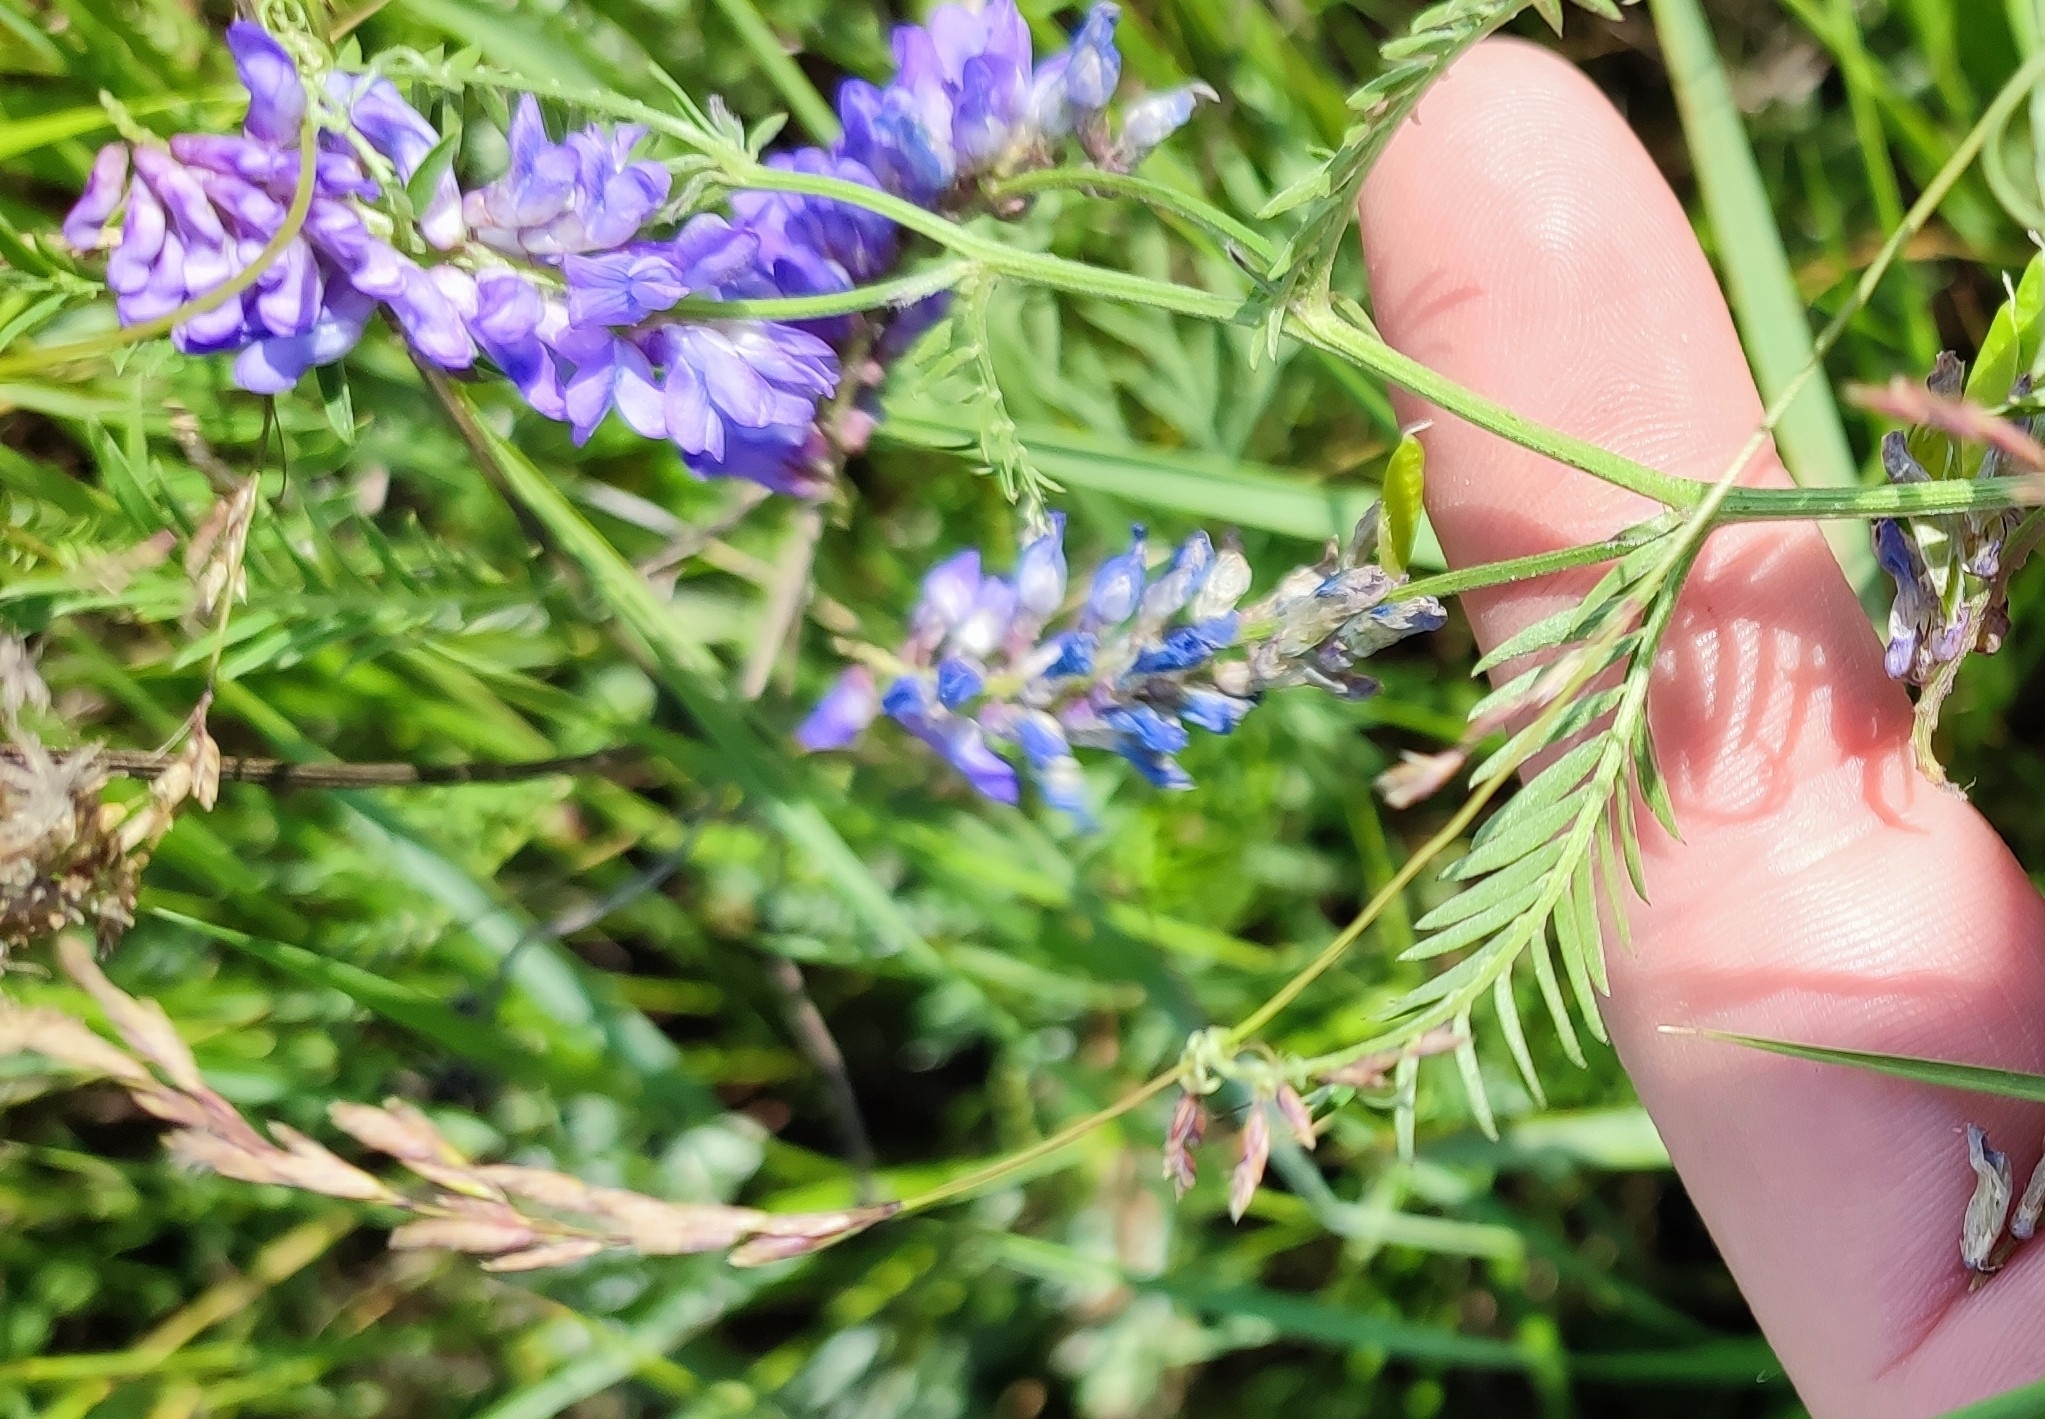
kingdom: Plantae
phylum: Tracheophyta
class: Magnoliopsida
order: Fabales
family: Fabaceae
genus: Vicia
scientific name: Vicia cracca
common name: Bird vetch
